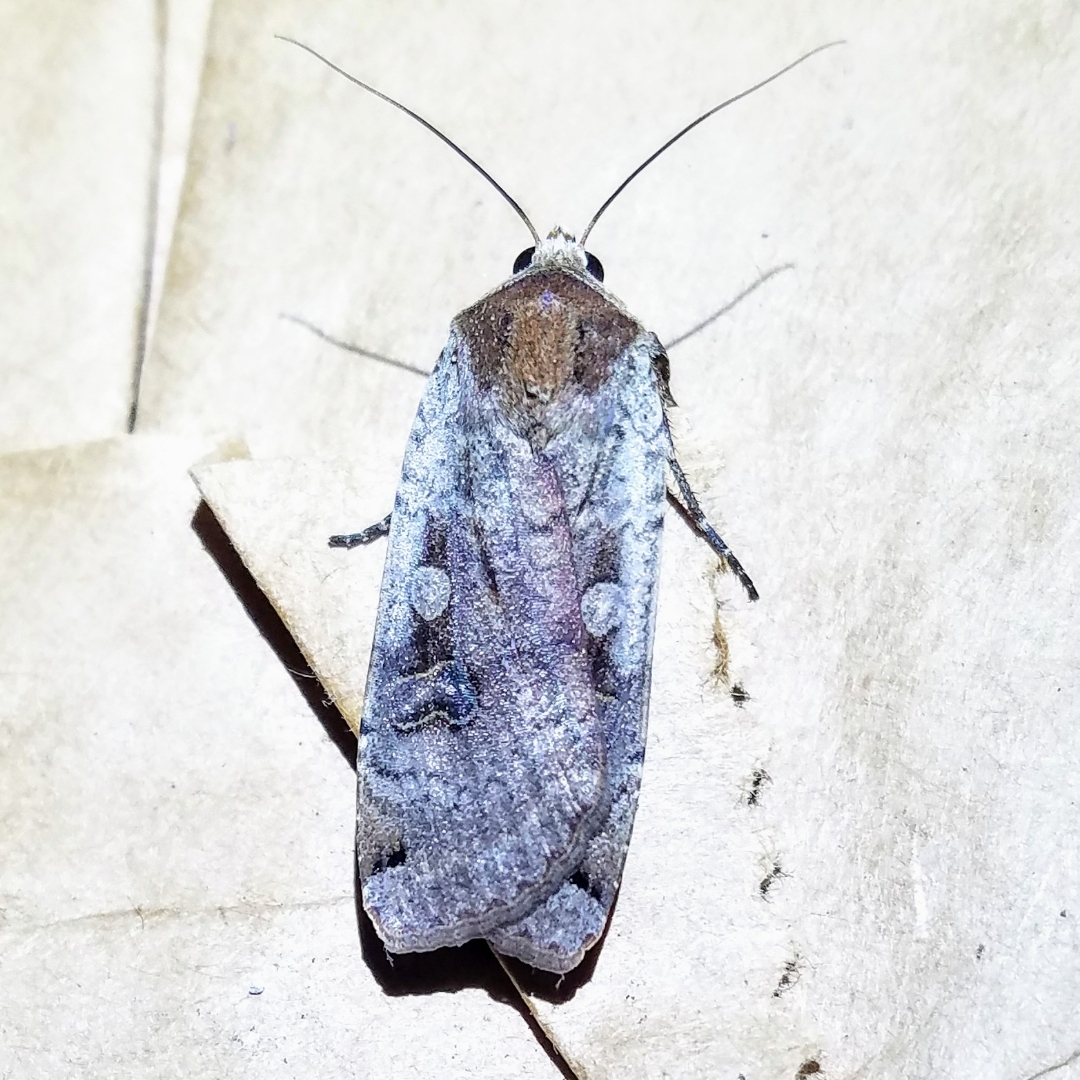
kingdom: Animalia
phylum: Arthropoda
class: Insecta
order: Lepidoptera
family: Noctuidae
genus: Noctua
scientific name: Noctua pronuba
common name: Large yellow underwing
